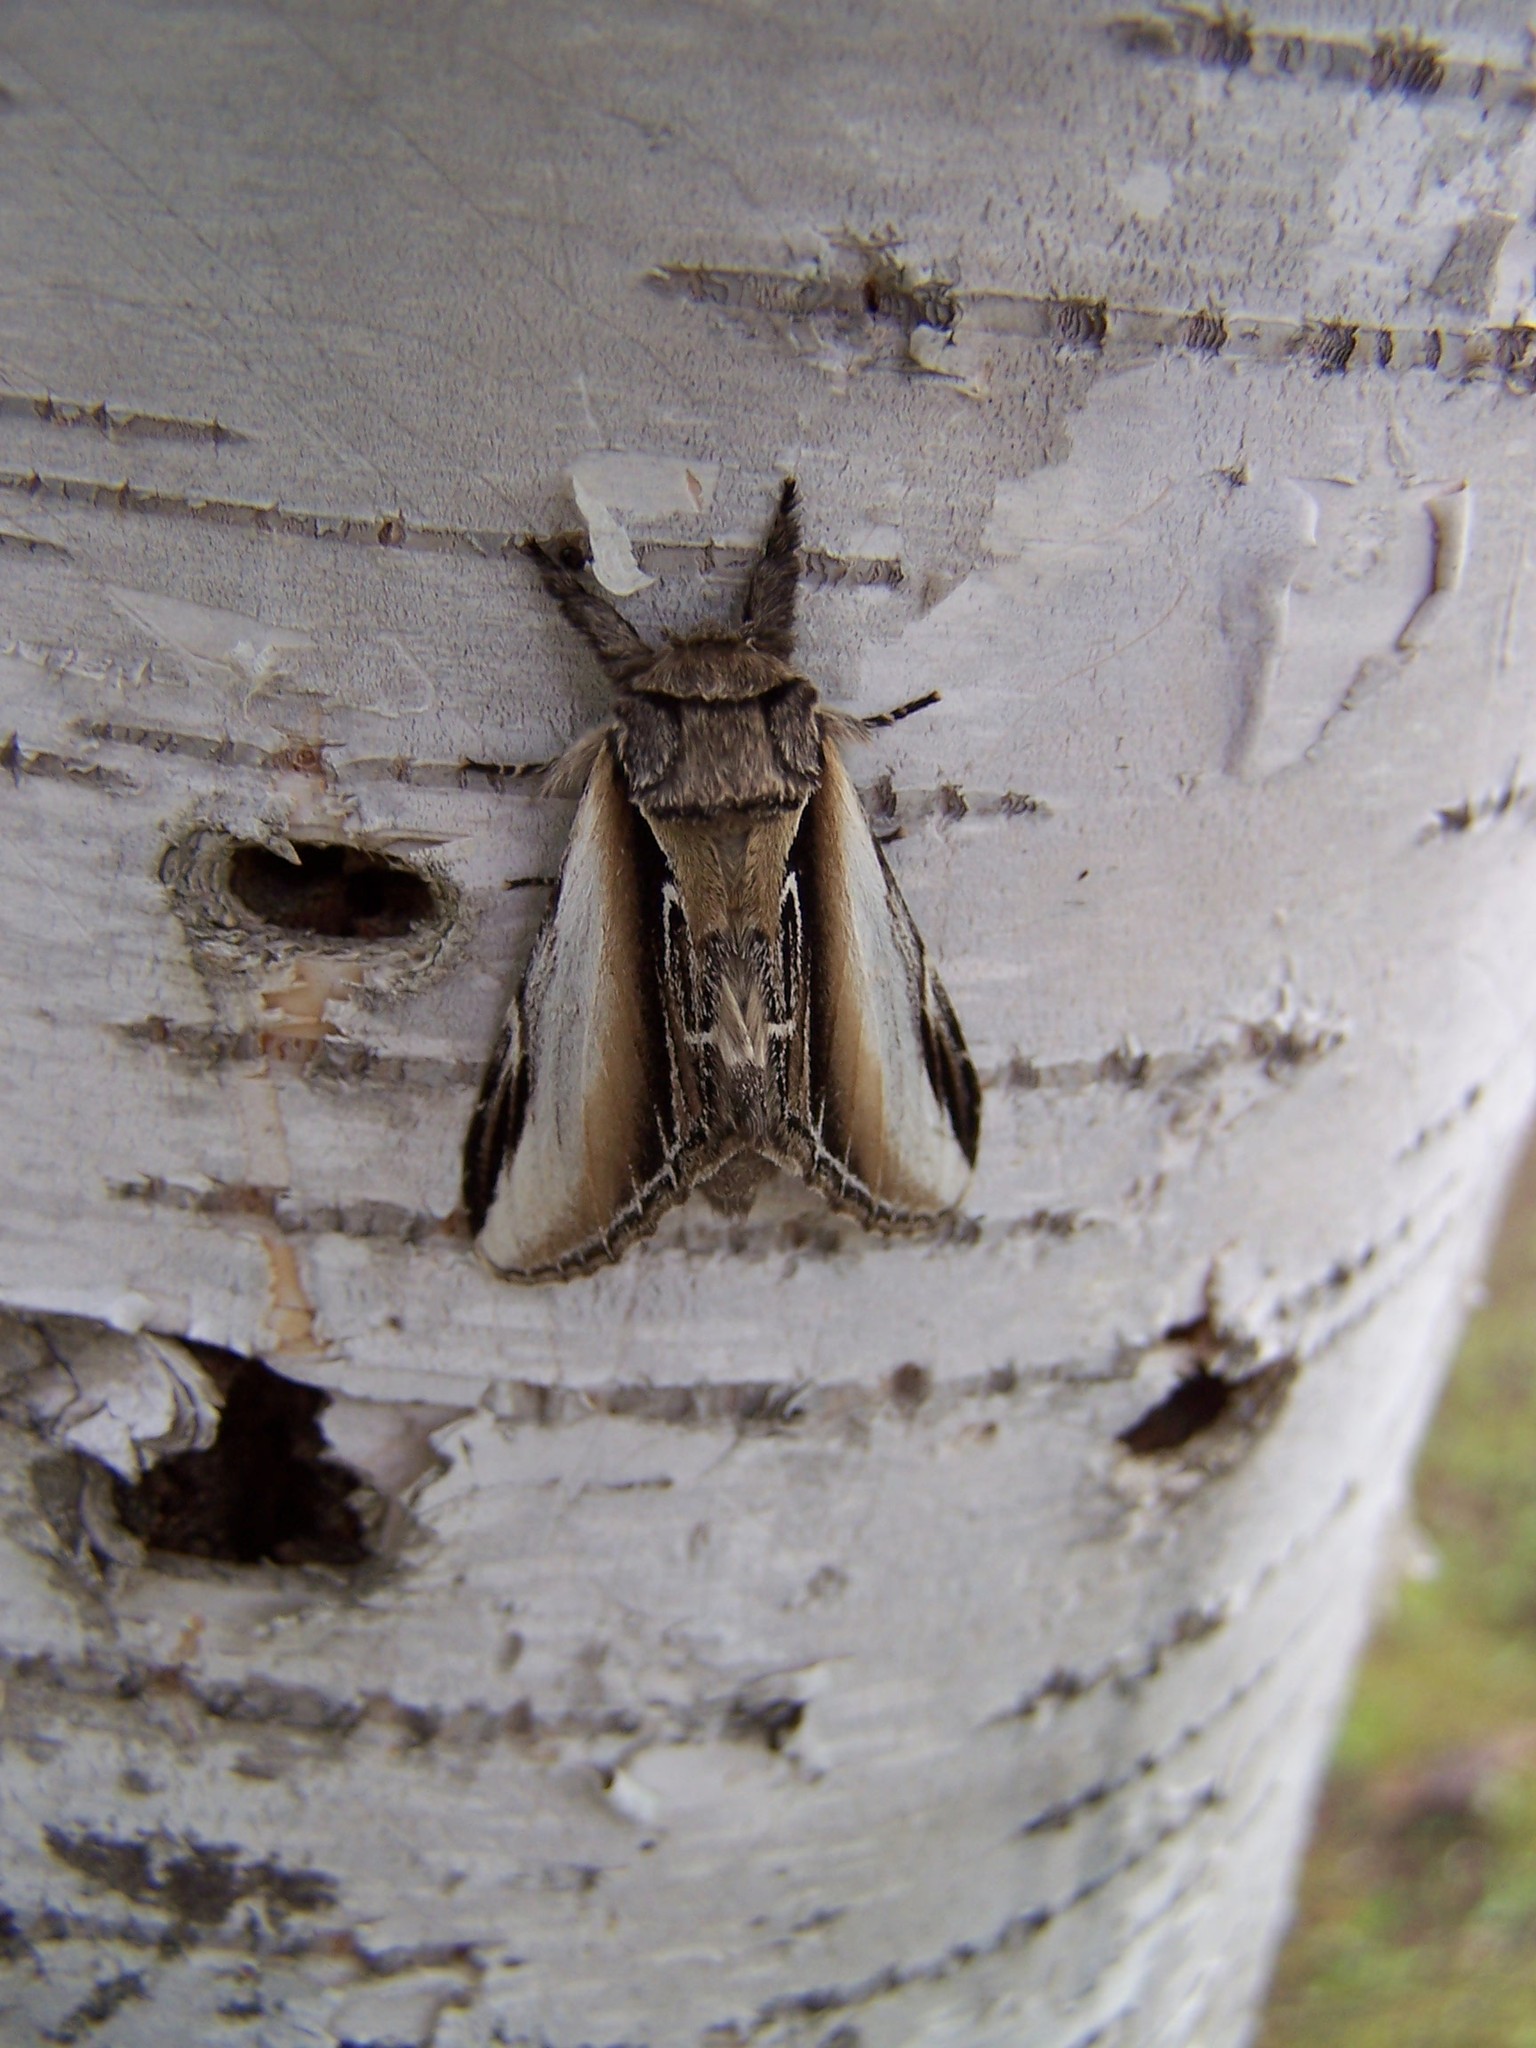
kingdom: Animalia
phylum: Arthropoda
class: Insecta
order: Lepidoptera
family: Notodontidae
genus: Pheosia
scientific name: Pheosia rimosa
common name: Black-rimmed prominent
